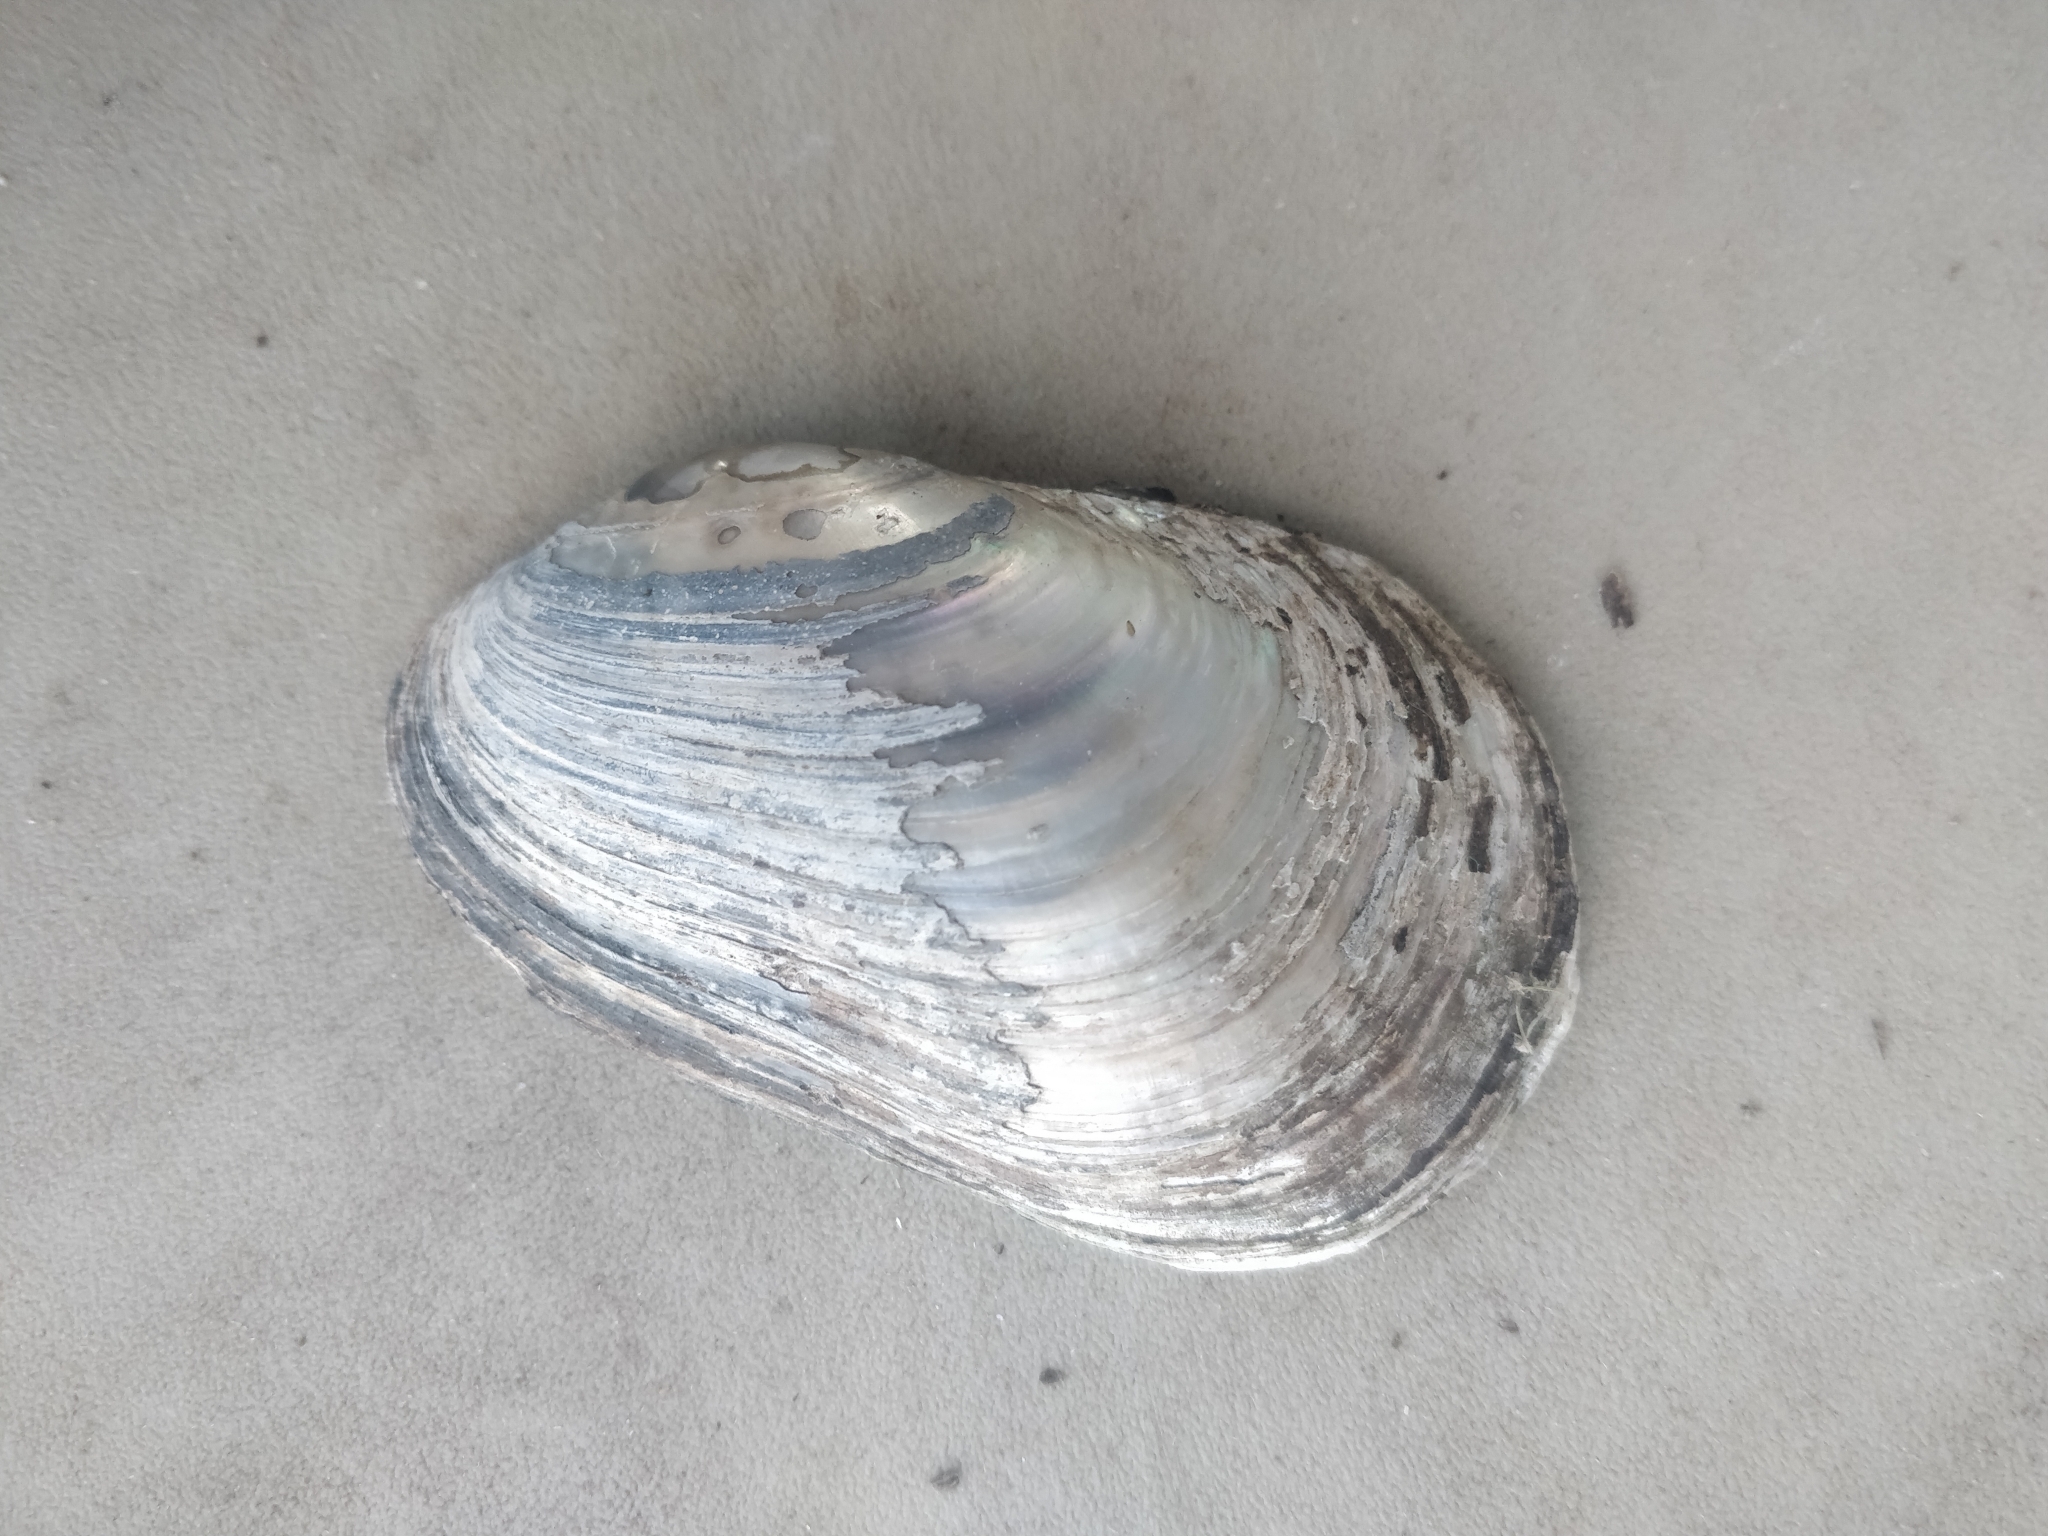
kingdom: Animalia
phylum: Mollusca
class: Bivalvia
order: Unionida
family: Unionidae
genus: Lampsilis
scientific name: Lampsilis siliquoidea
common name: Fatmucket
